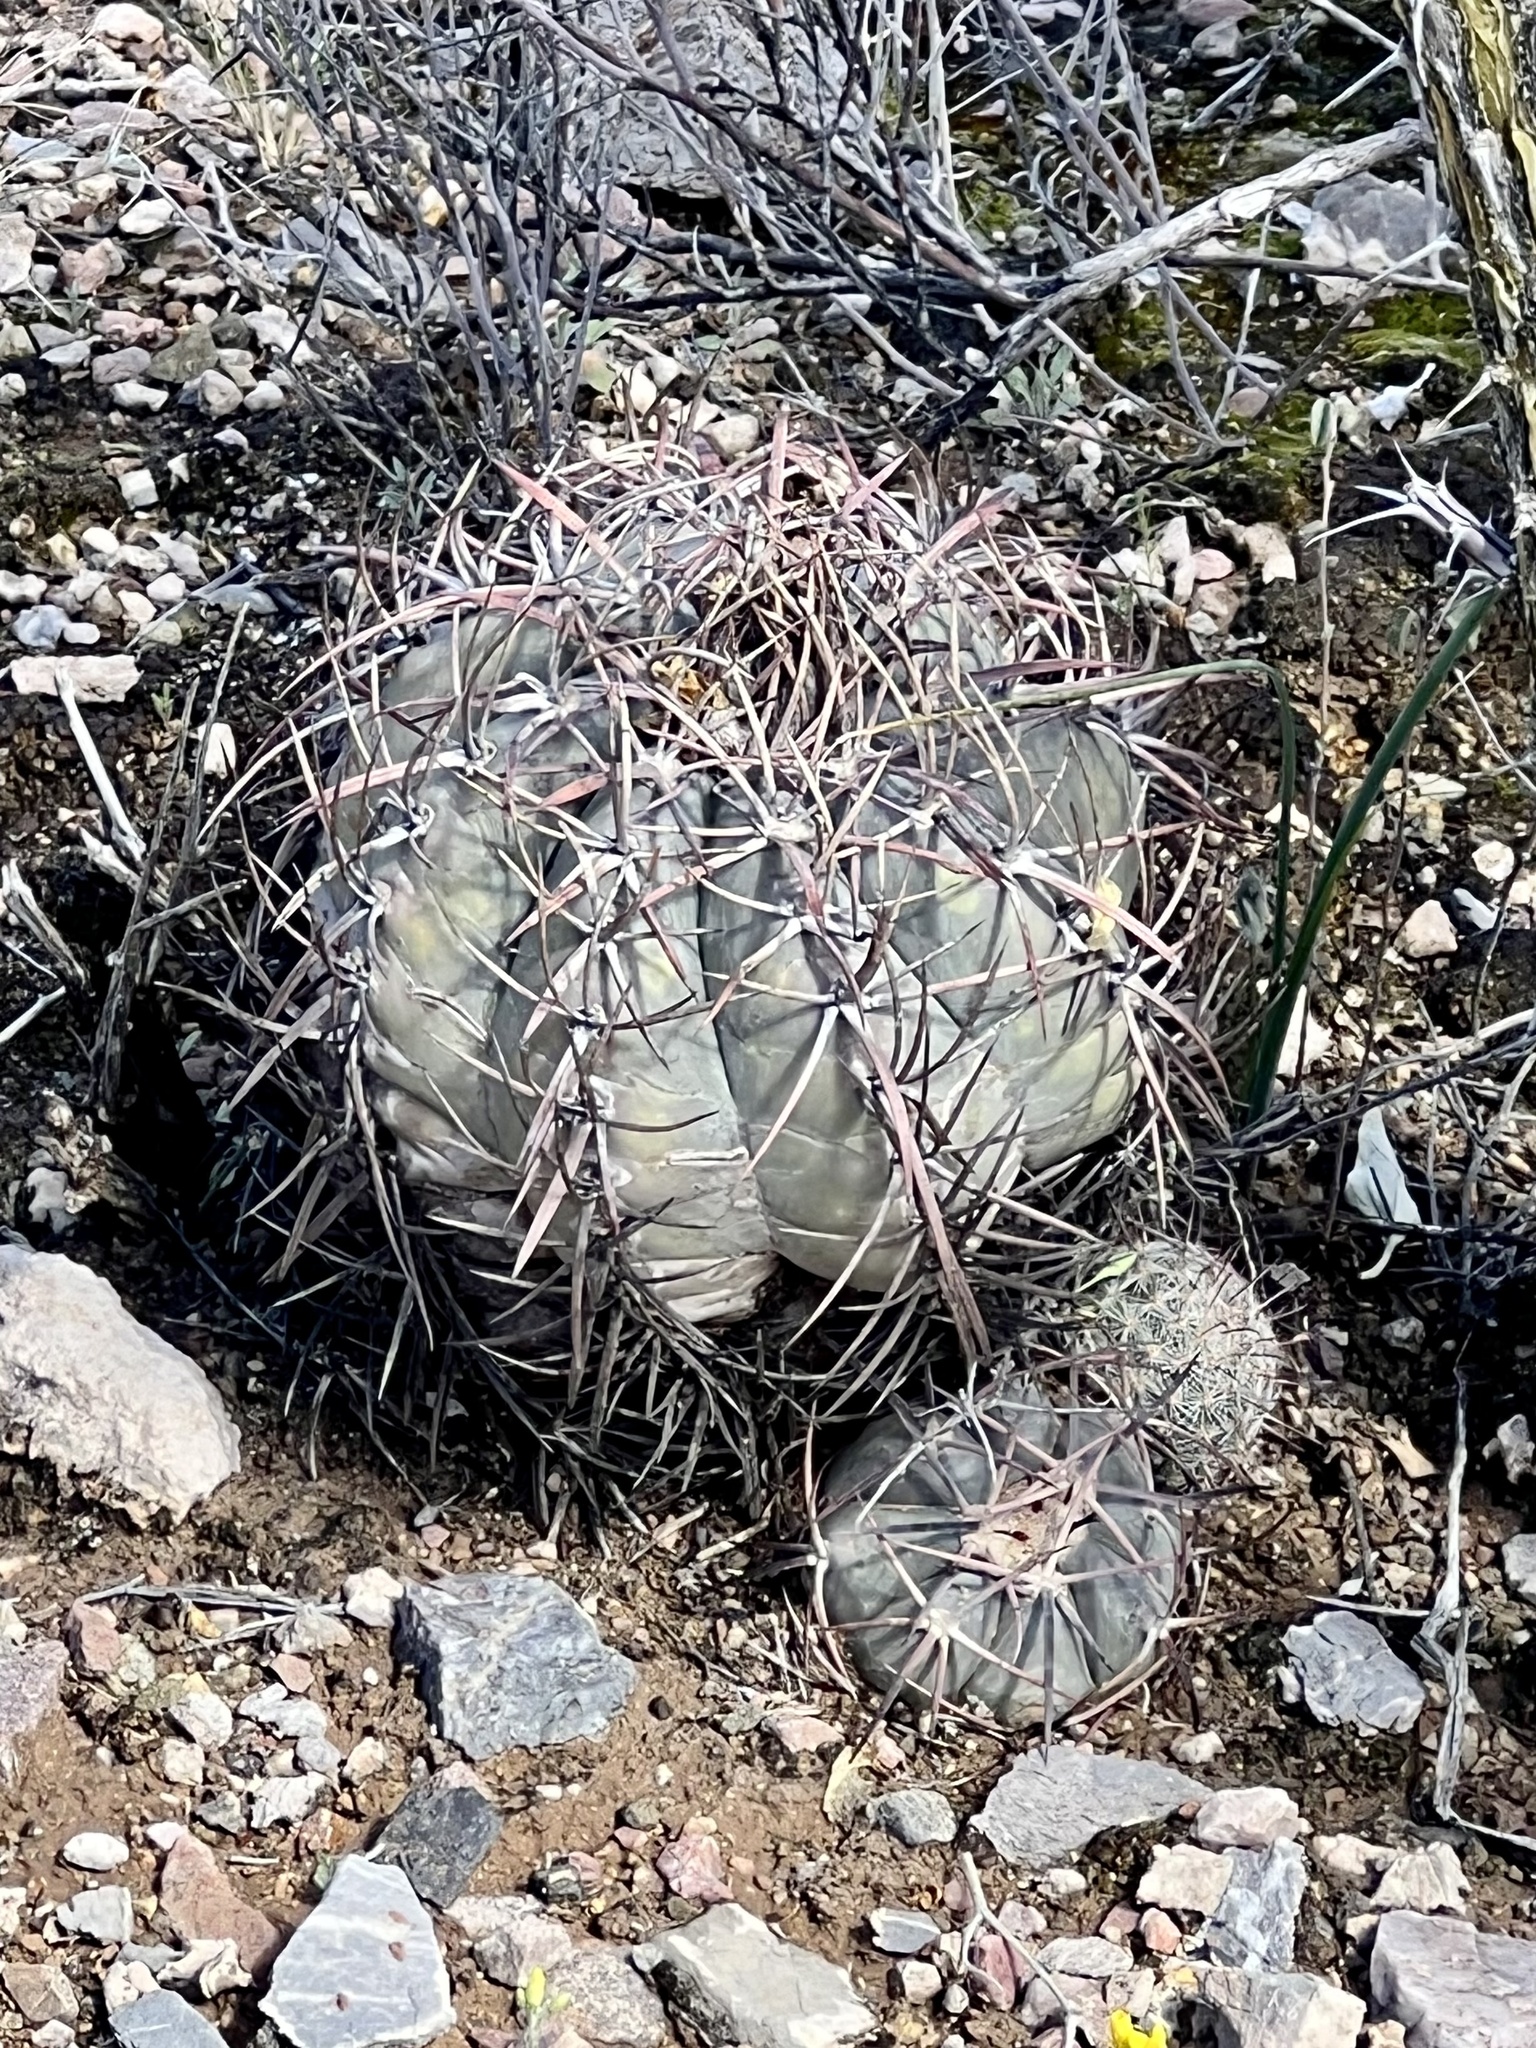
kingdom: Plantae
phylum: Tracheophyta
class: Magnoliopsida
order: Caryophyllales
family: Cactaceae
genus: Echinocactus
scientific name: Echinocactus horizonthalonius
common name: Devilshead
